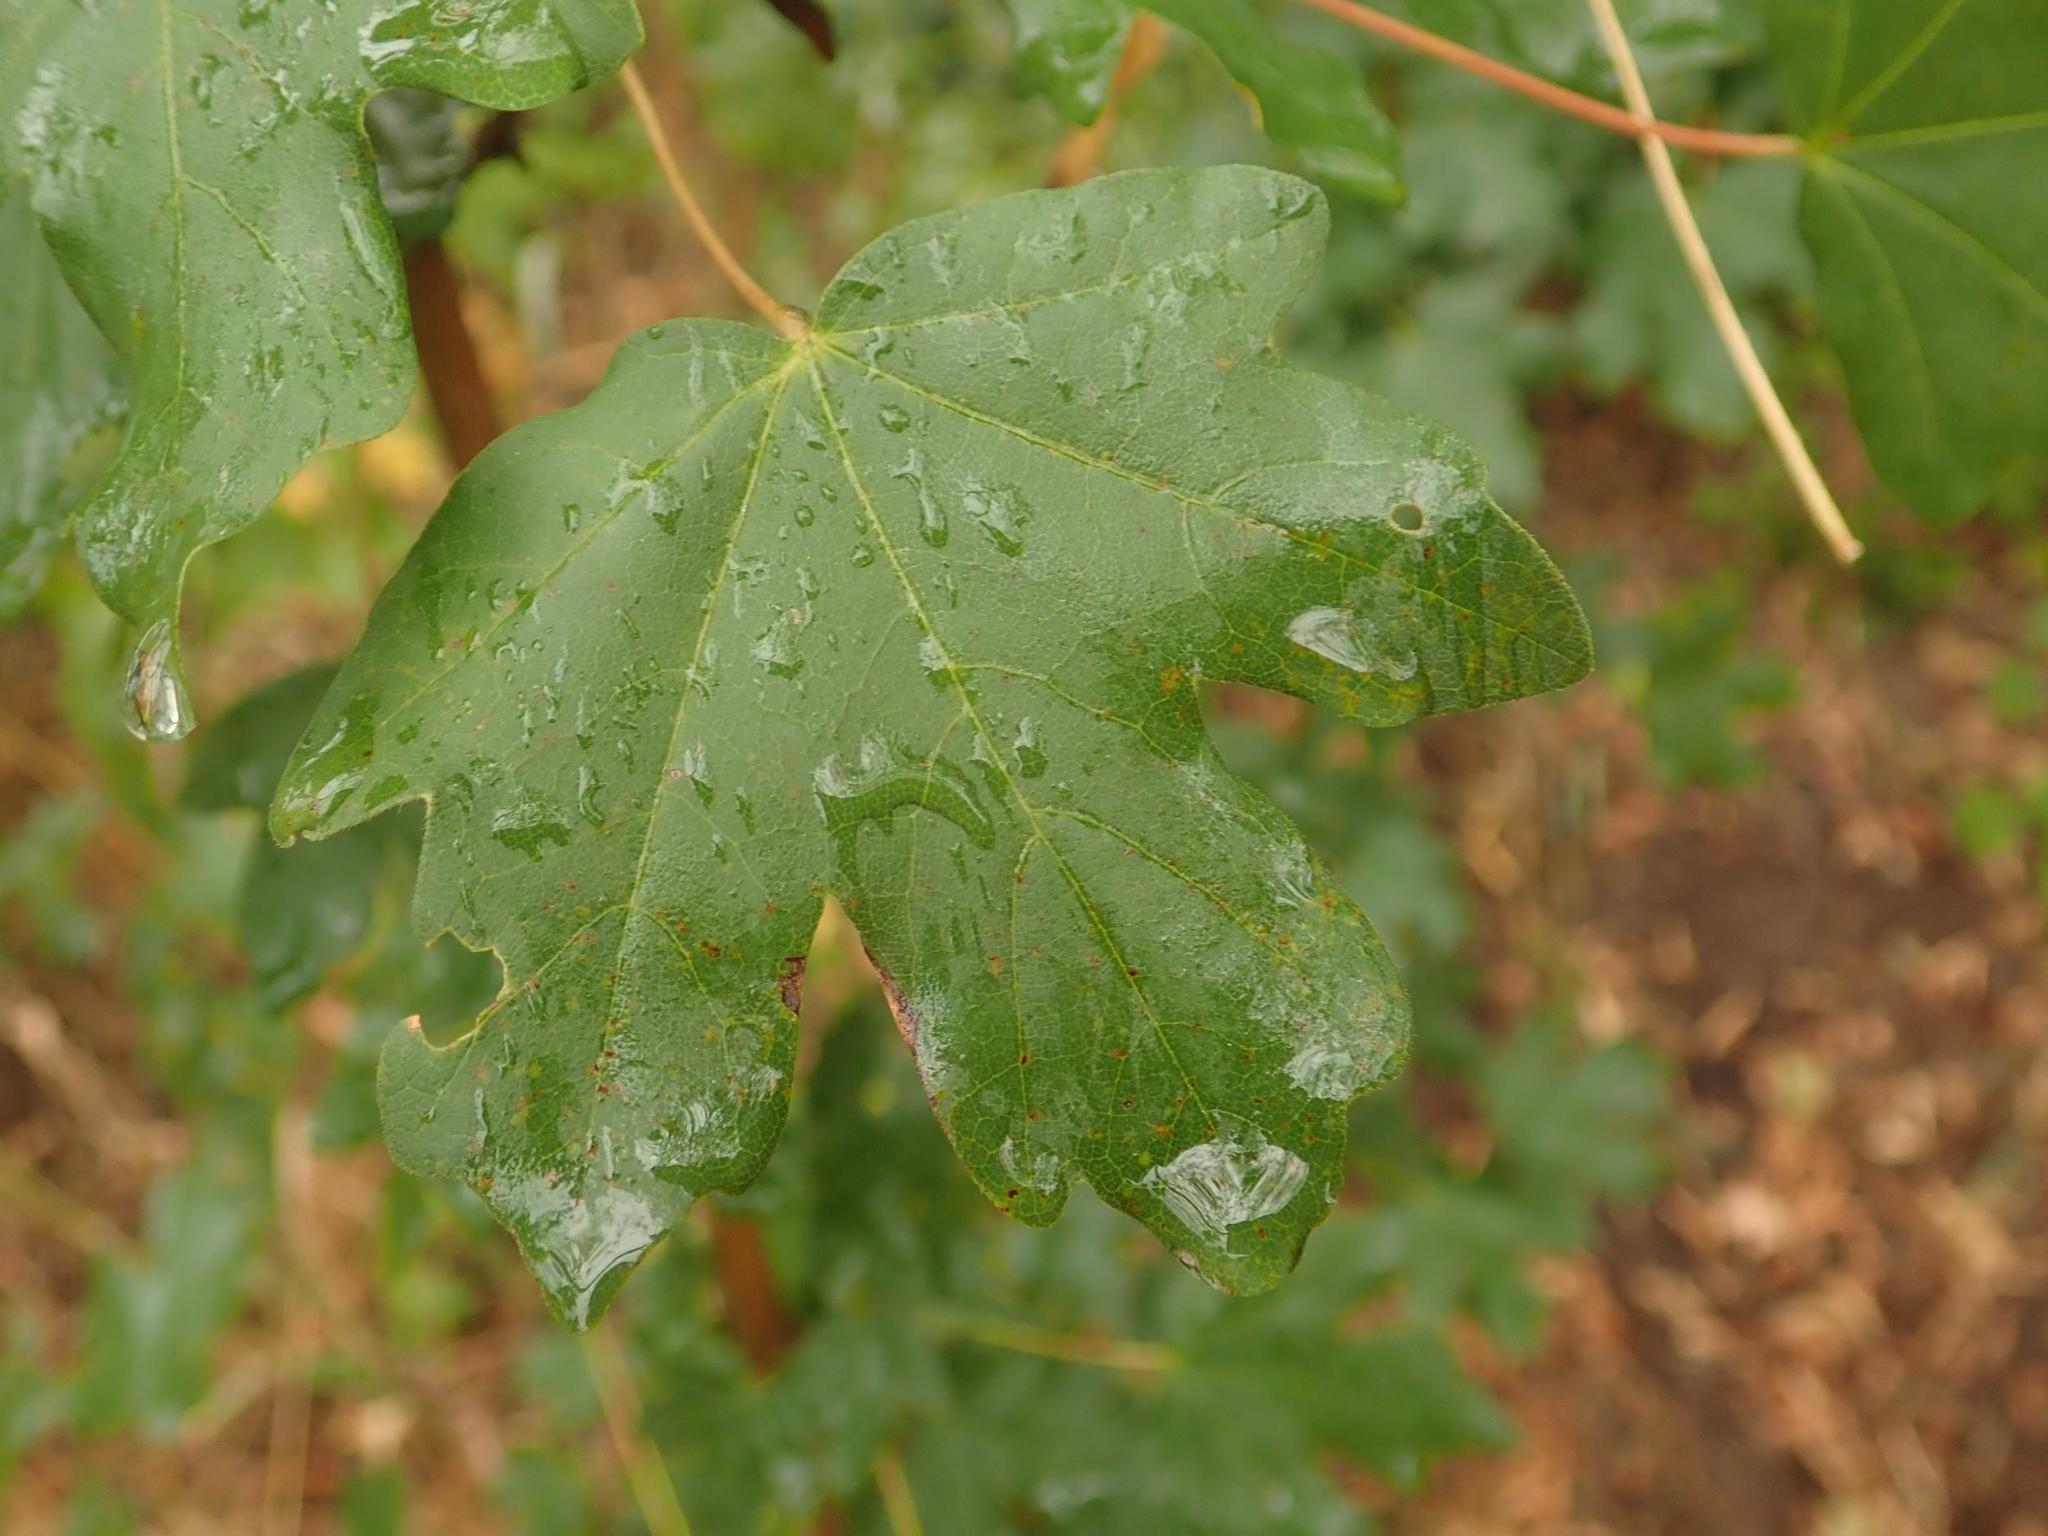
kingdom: Plantae
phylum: Tracheophyta
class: Magnoliopsida
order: Sapindales
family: Sapindaceae
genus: Acer
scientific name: Acer campestre
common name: Field maple
